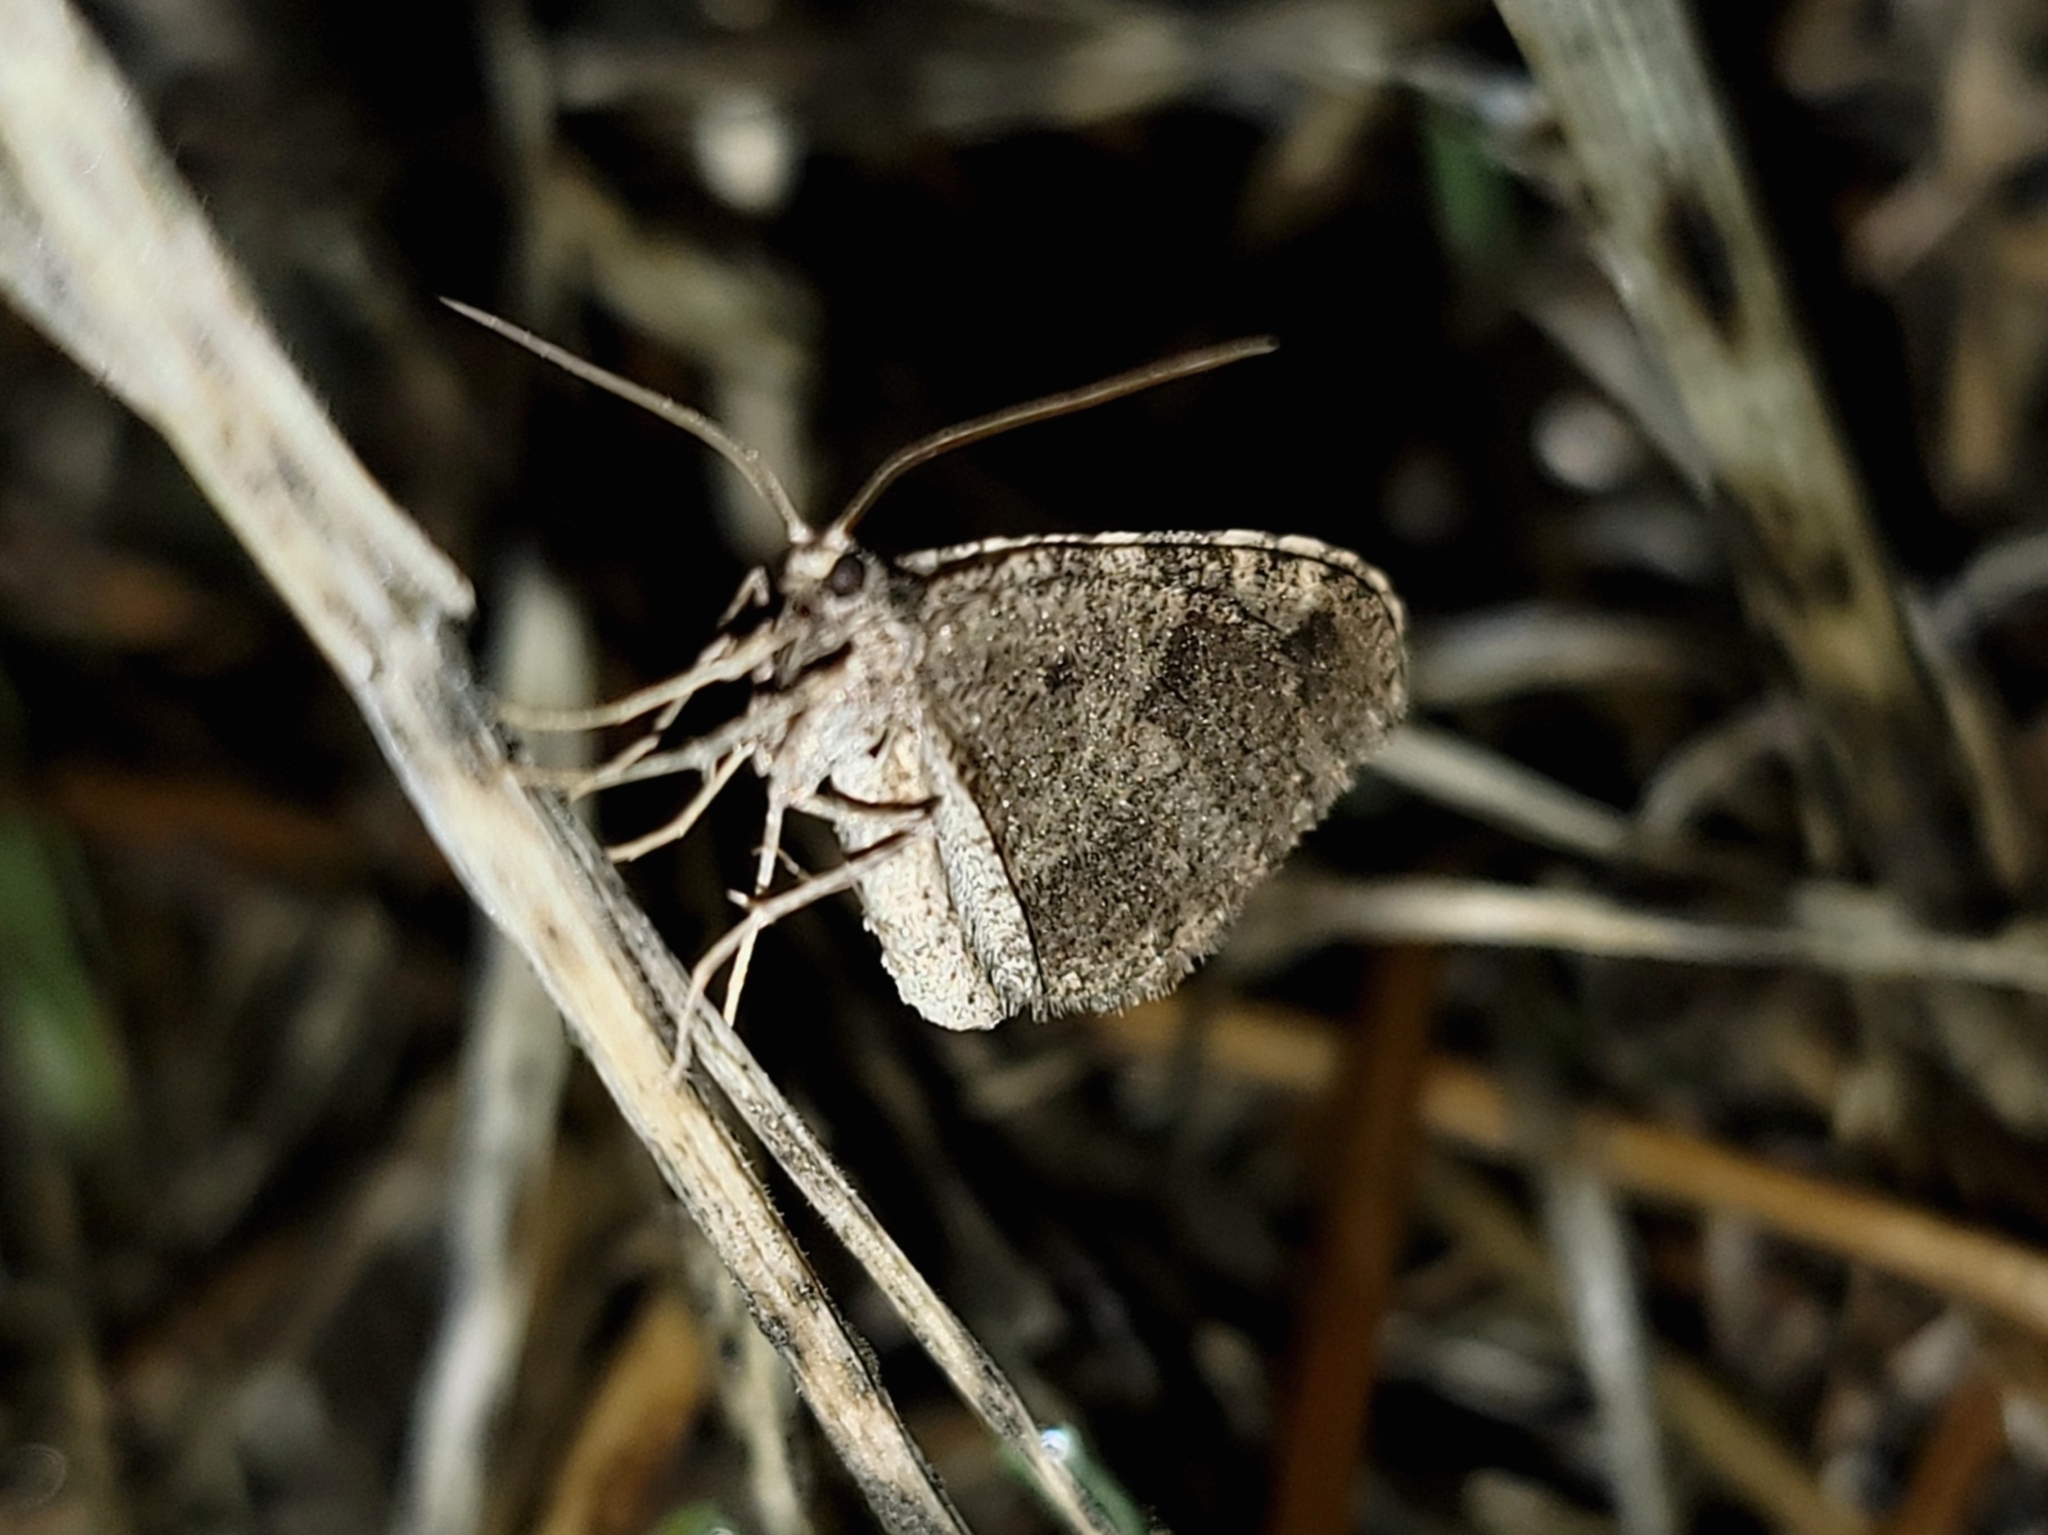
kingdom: Animalia
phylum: Arthropoda
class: Insecta
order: Lepidoptera
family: Geometridae
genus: Stamnodes
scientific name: Stamnodes affiliata
